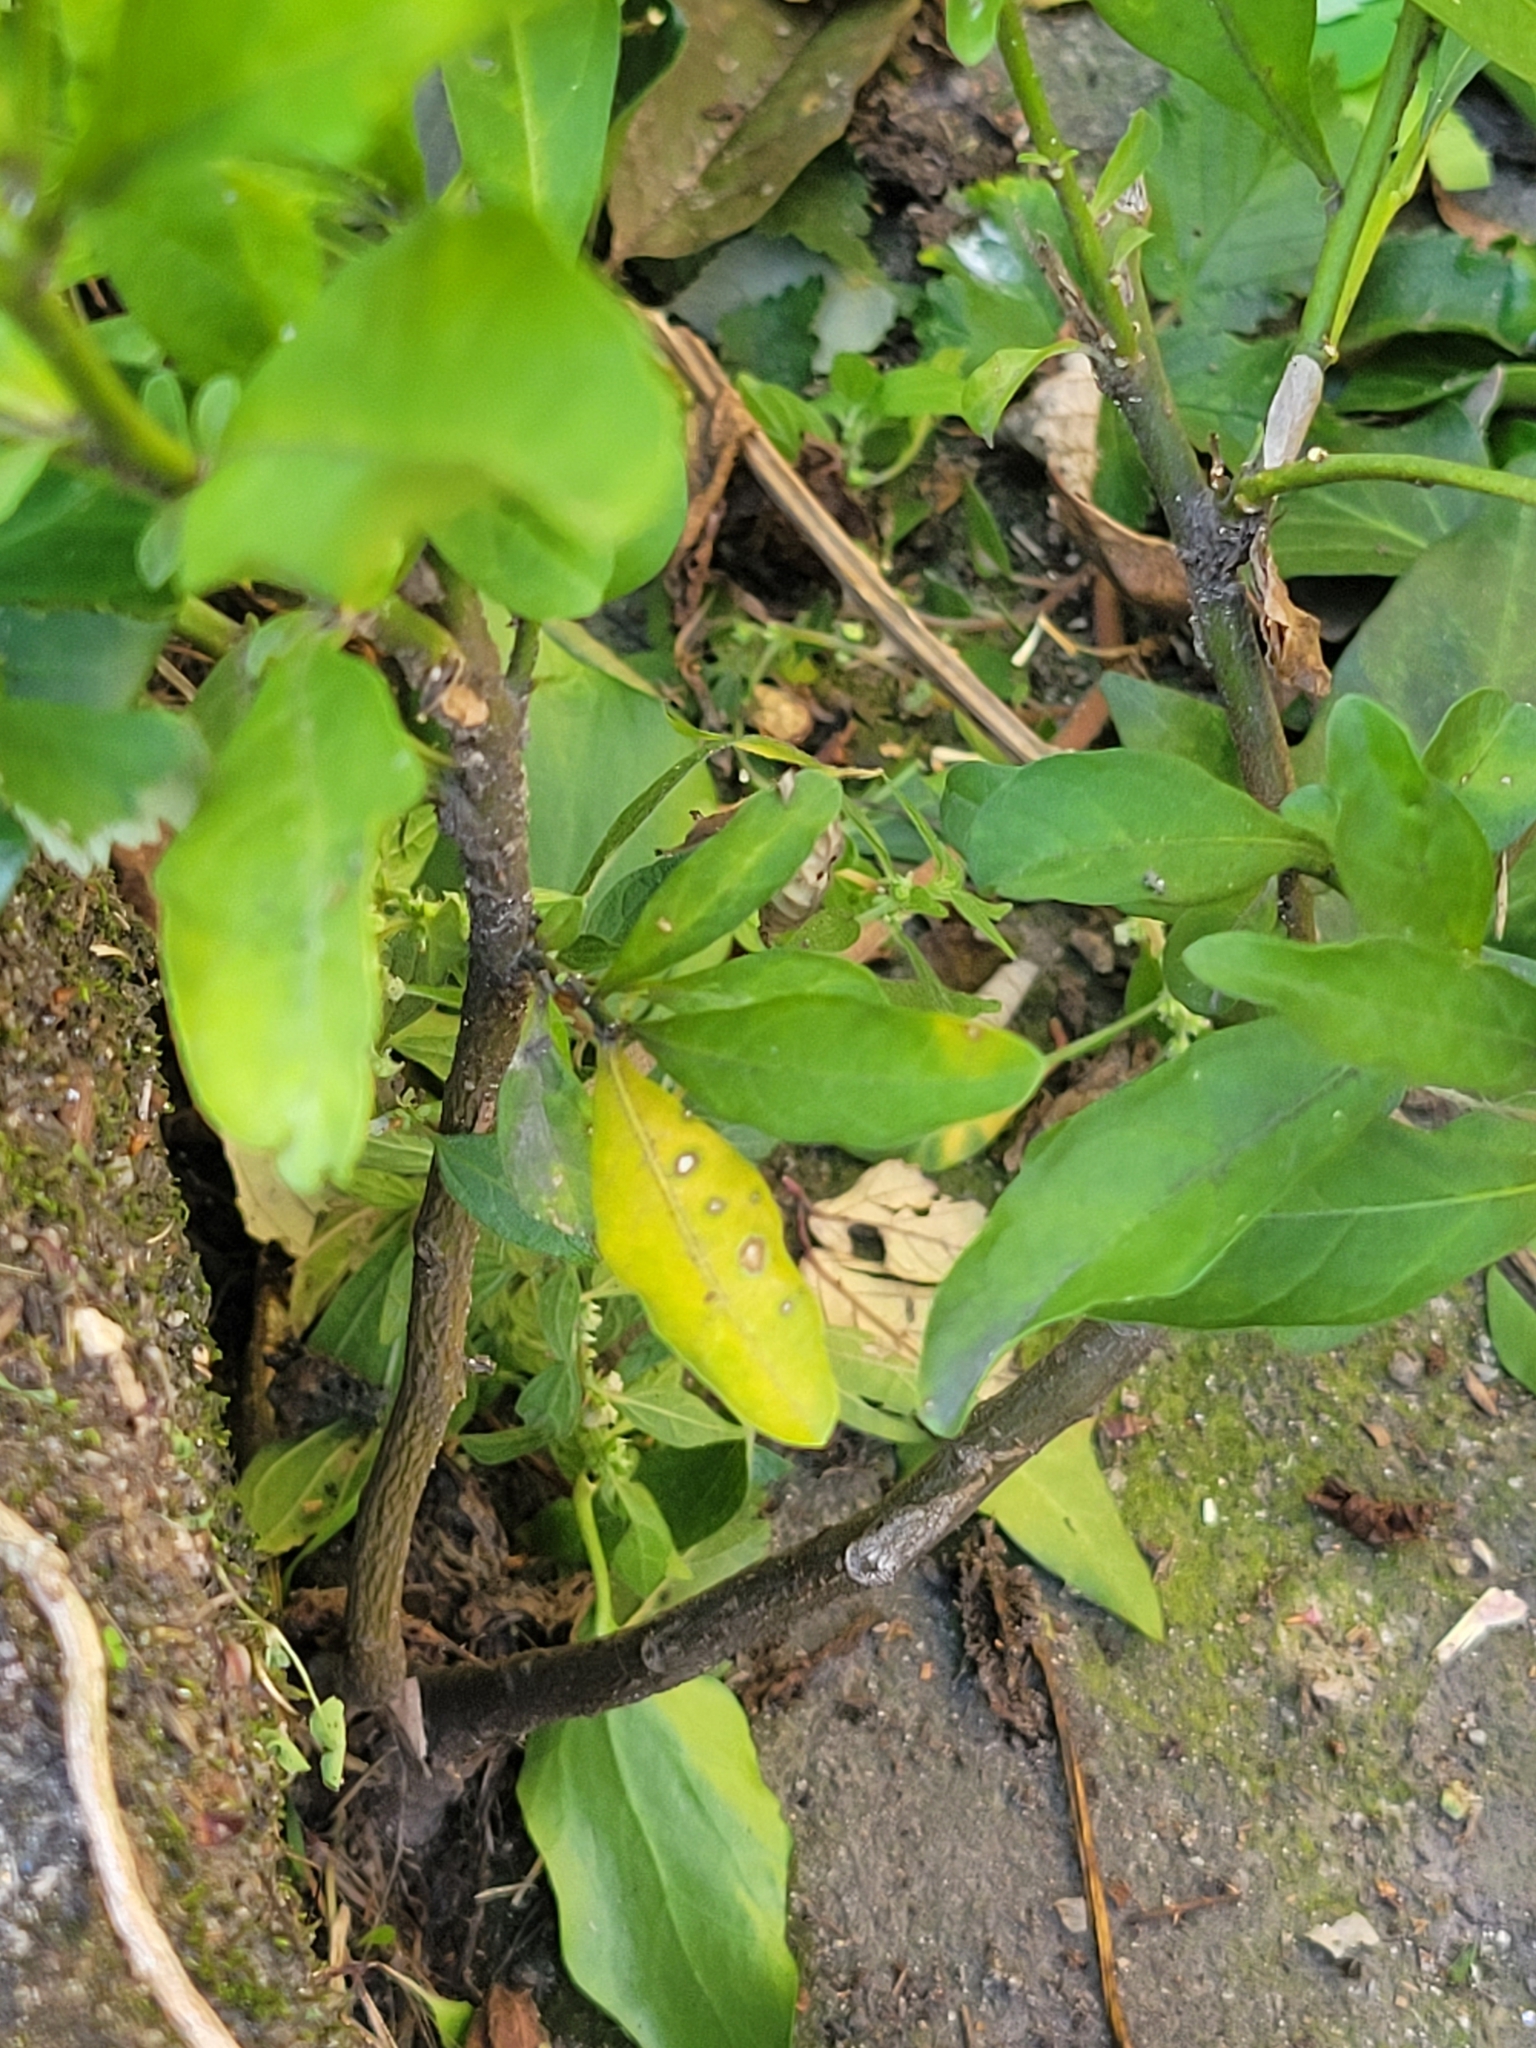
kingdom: Plantae
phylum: Tracheophyta
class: Magnoliopsida
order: Solanales
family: Solanaceae
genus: Solanum
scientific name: Solanum pseudocapsicum
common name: Jerusalem cherry
